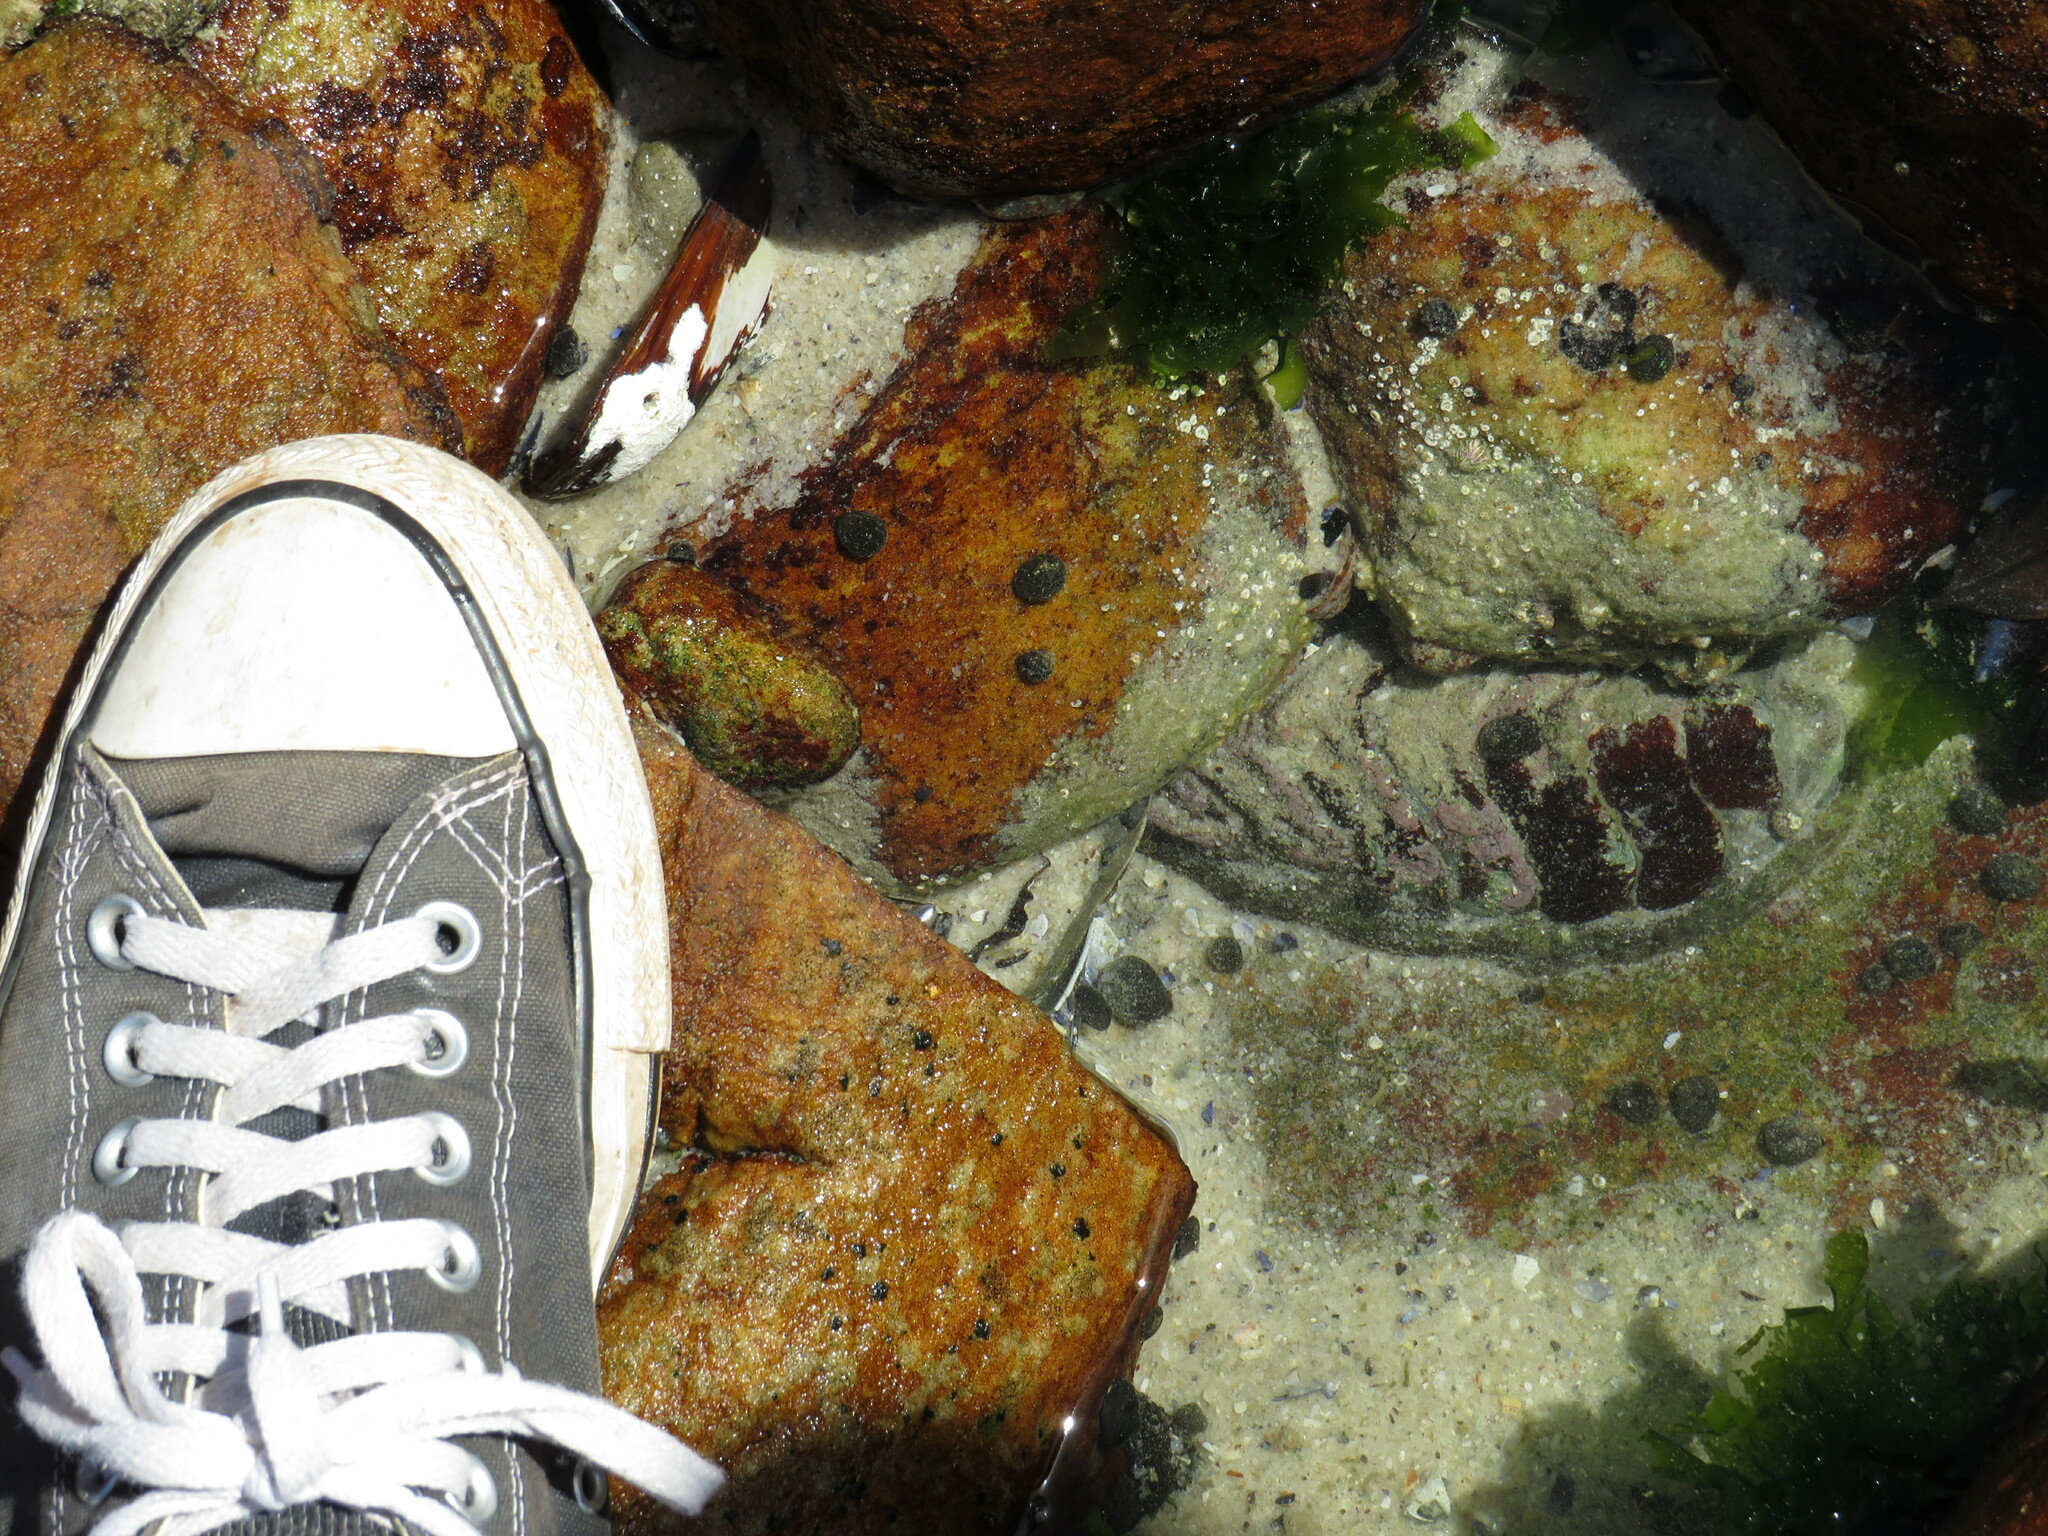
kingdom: Animalia
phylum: Mollusca
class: Polyplacophora
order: Chitonida
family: Chaetopleuridae
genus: Dinoplax
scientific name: Dinoplax gigas
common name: Armadillo
